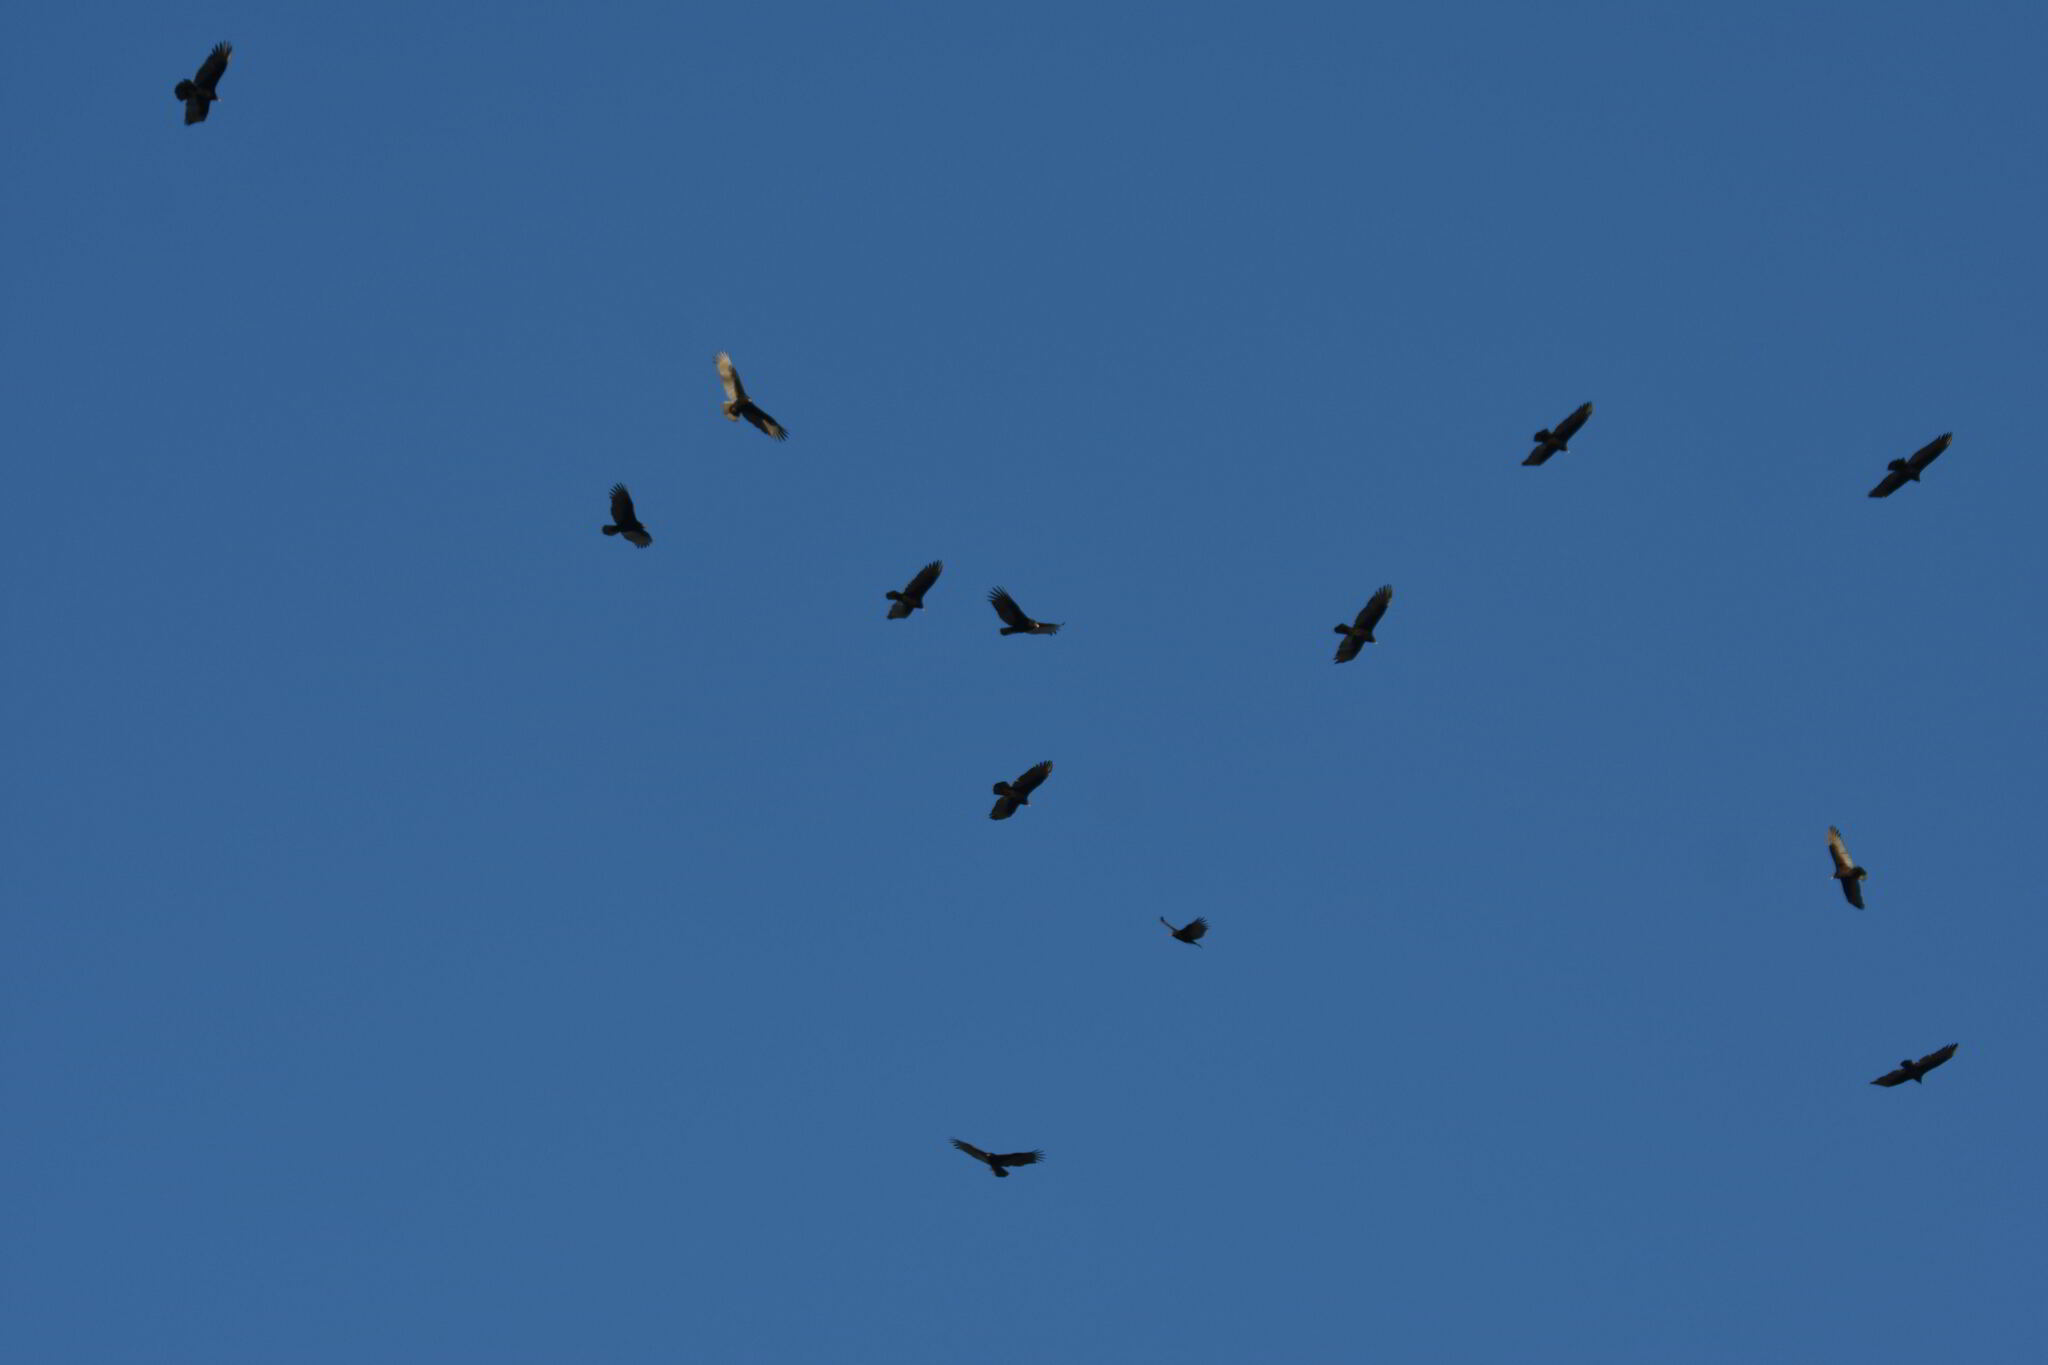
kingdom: Animalia
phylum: Chordata
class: Aves
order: Accipitriformes
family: Cathartidae
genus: Cathartes
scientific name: Cathartes aura
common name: Turkey vulture
